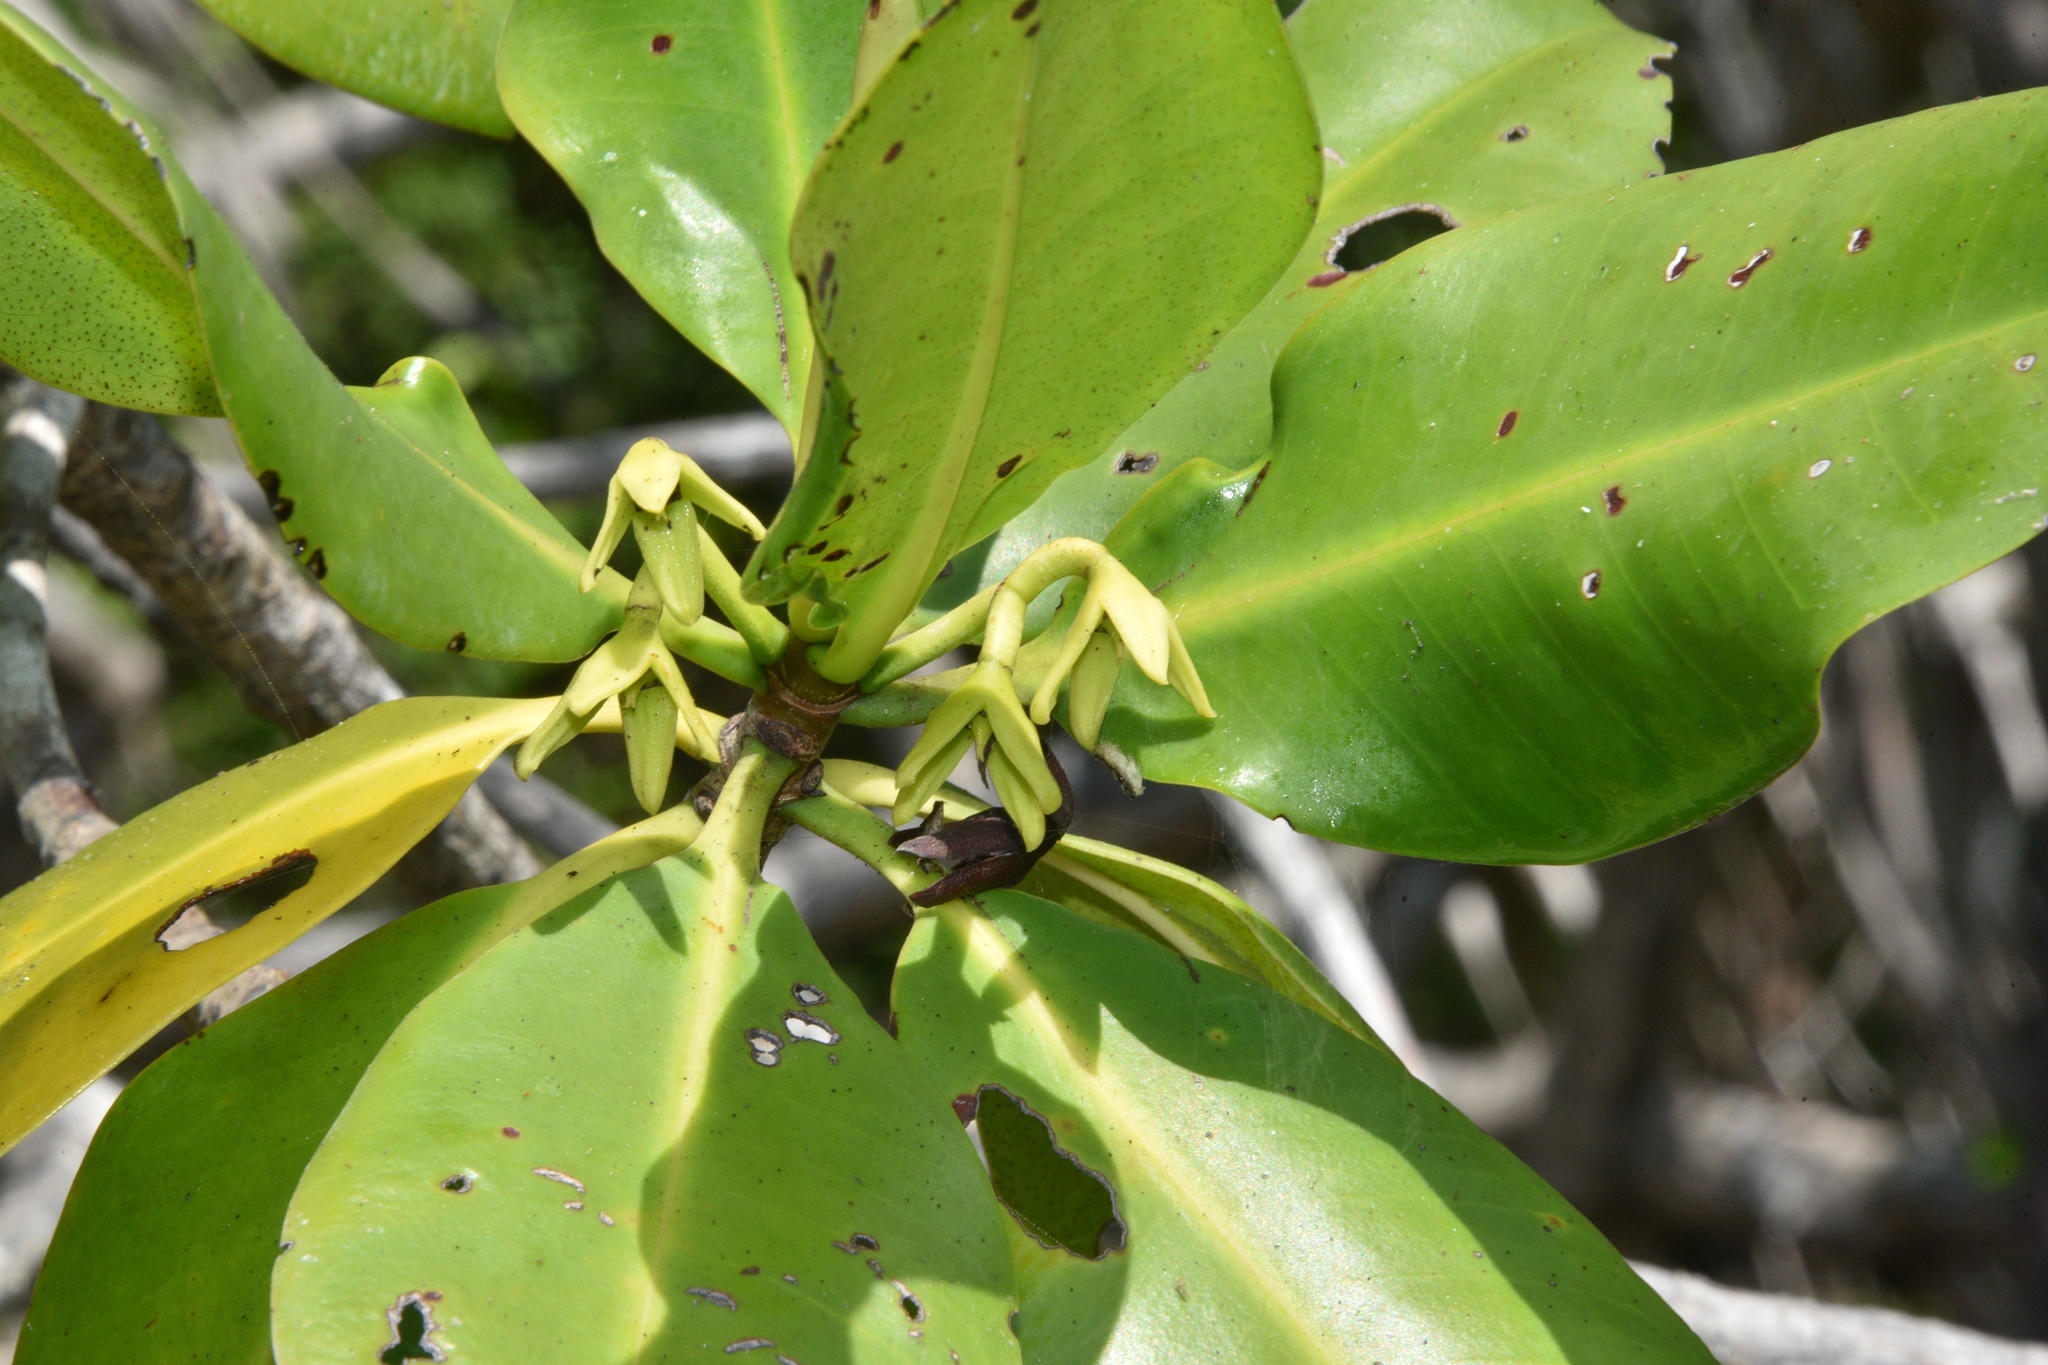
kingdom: Plantae
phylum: Tracheophyta
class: Magnoliopsida
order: Malpighiales
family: Rhizophoraceae
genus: Rhizophora
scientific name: Rhizophora mangle
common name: Red mangrove
